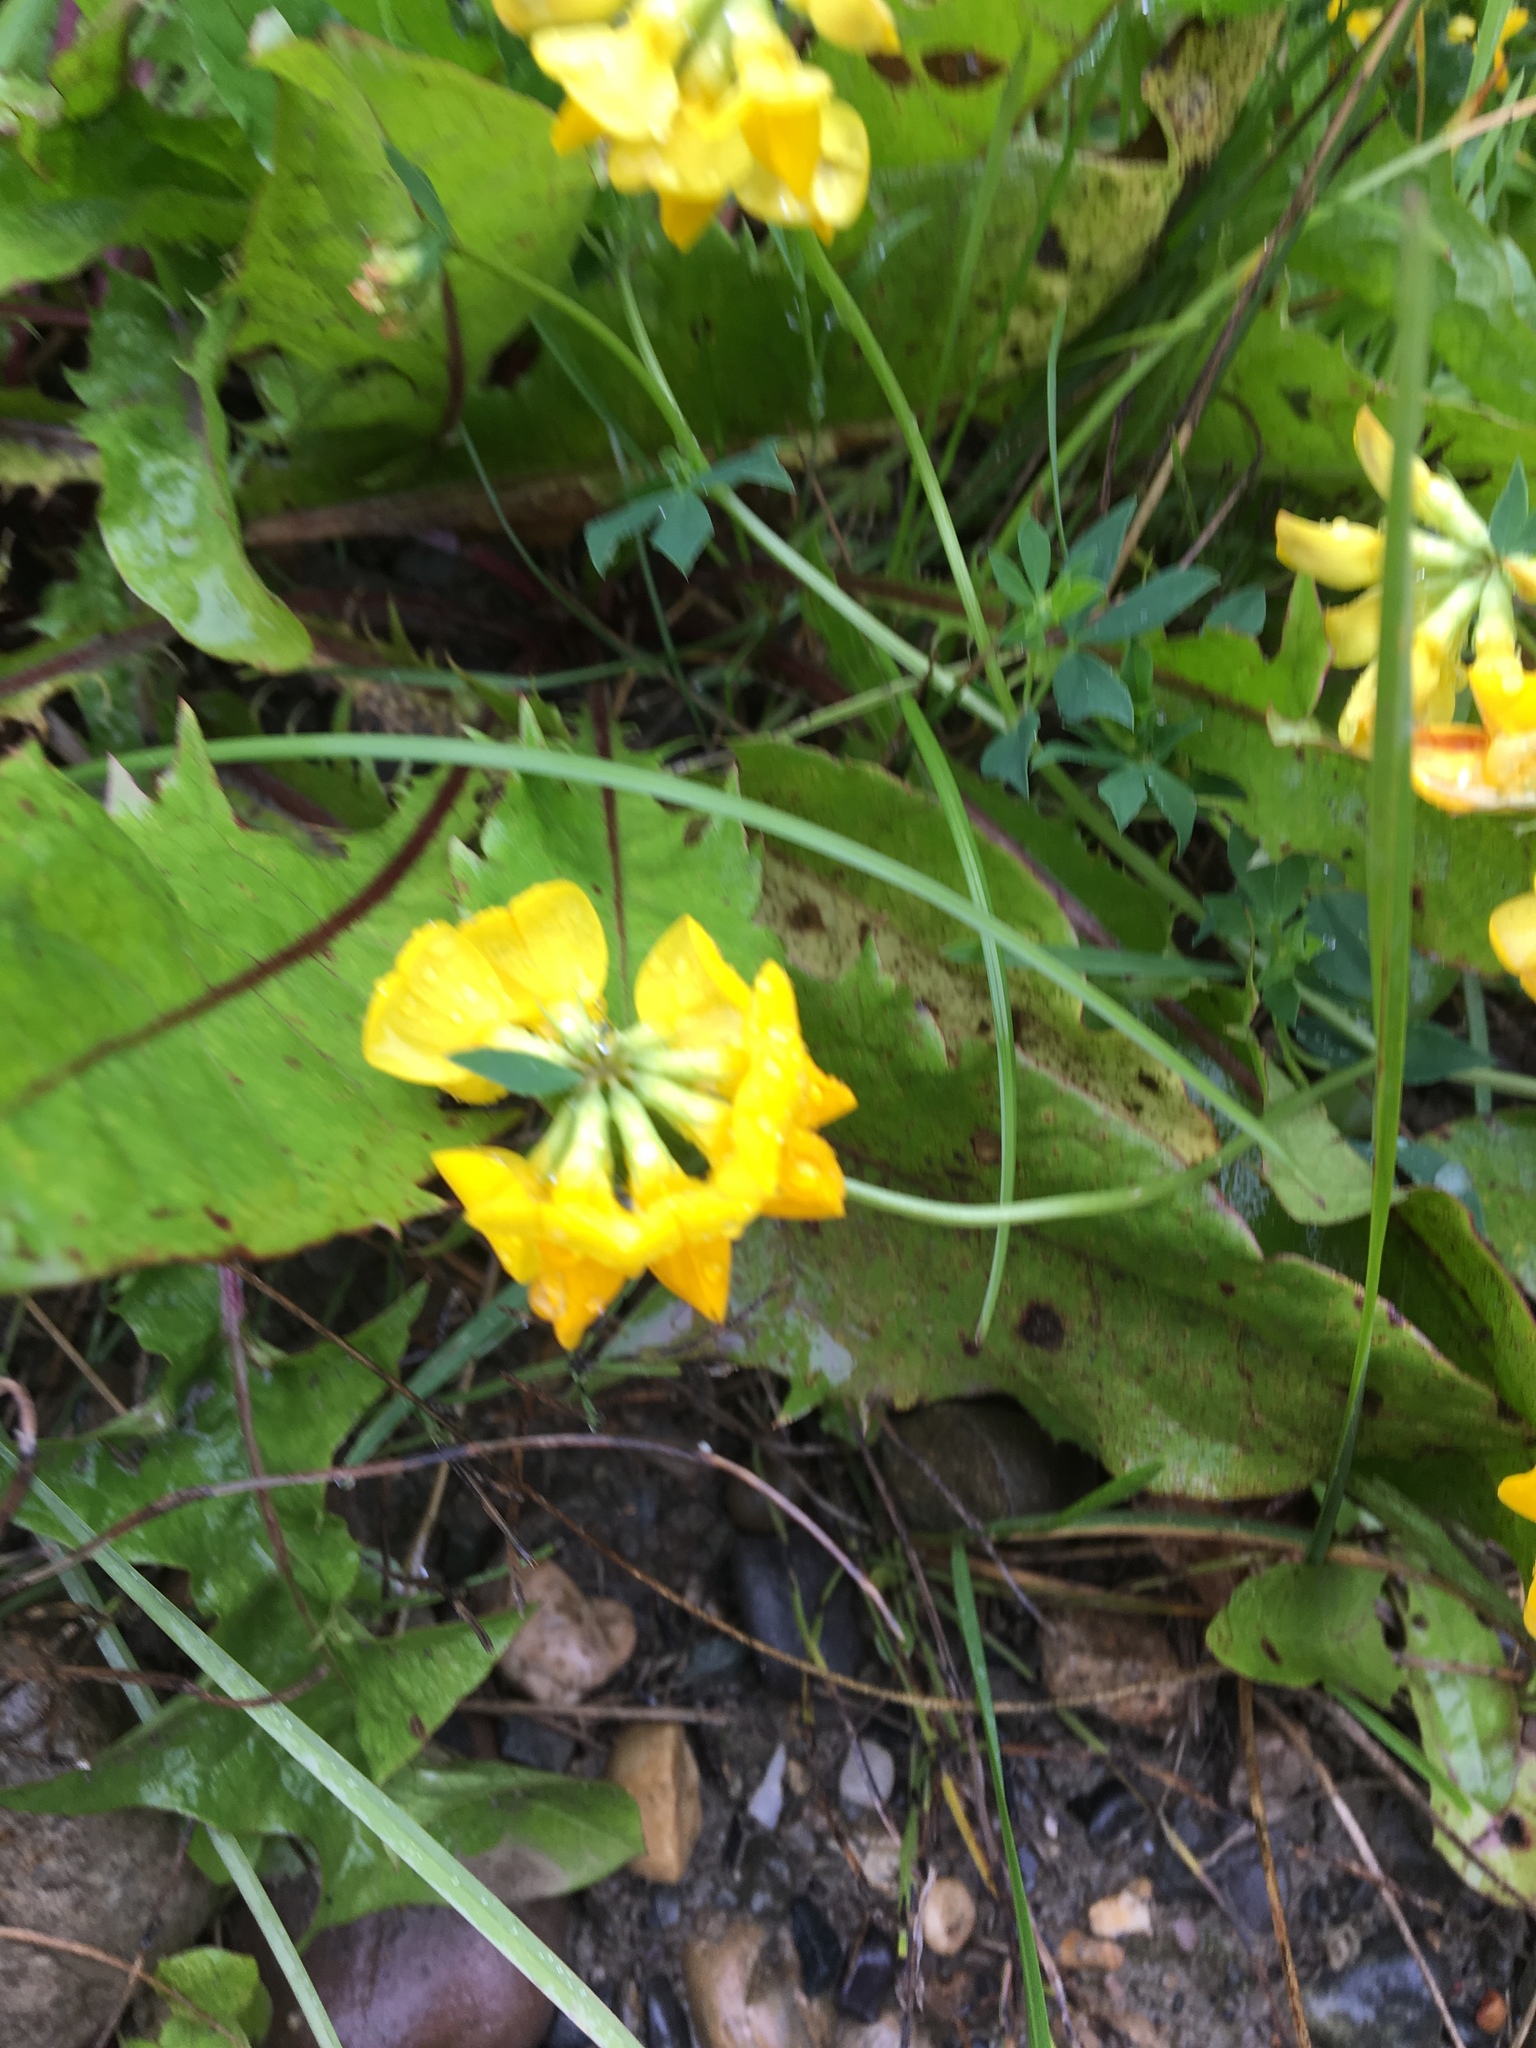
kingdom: Plantae
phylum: Tracheophyta
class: Magnoliopsida
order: Fabales
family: Fabaceae
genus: Lotus
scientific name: Lotus corniculatus
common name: Common bird's-foot-trefoil
